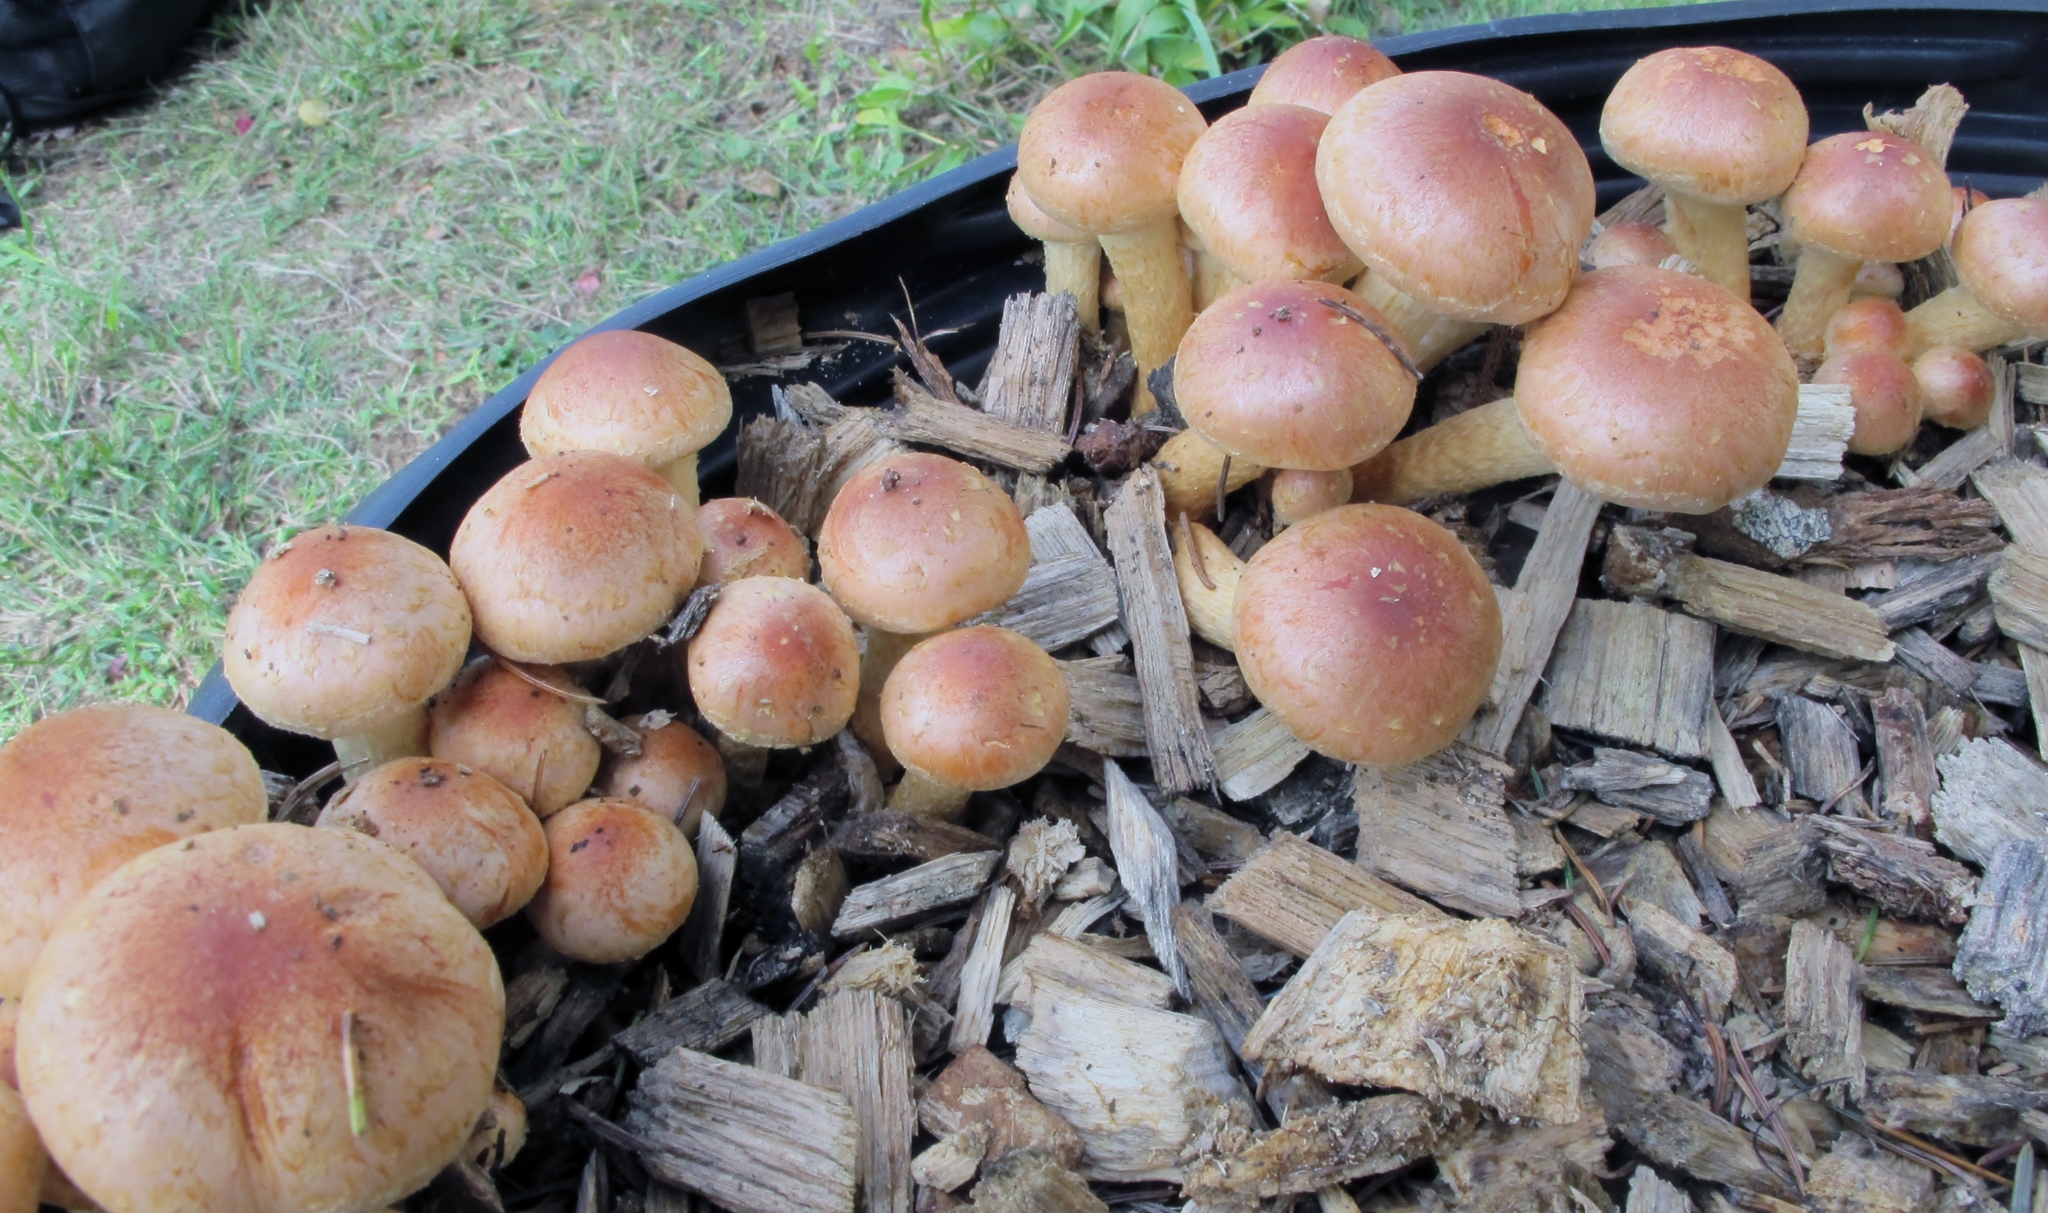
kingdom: Fungi
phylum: Basidiomycota
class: Agaricomycetes
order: Agaricales
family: Strophariaceae
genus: Hypholoma
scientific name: Hypholoma lateritium
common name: Brick caps
